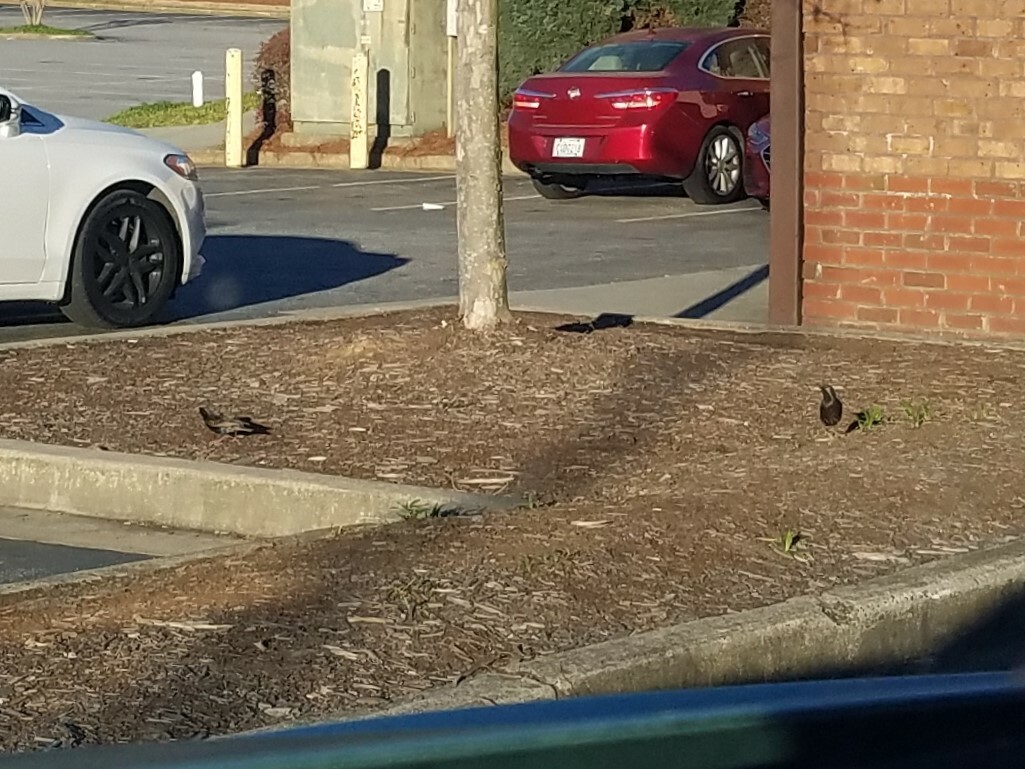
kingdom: Animalia
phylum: Chordata
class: Aves
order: Passeriformes
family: Sturnidae
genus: Sturnus
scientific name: Sturnus vulgaris
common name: Common starling
